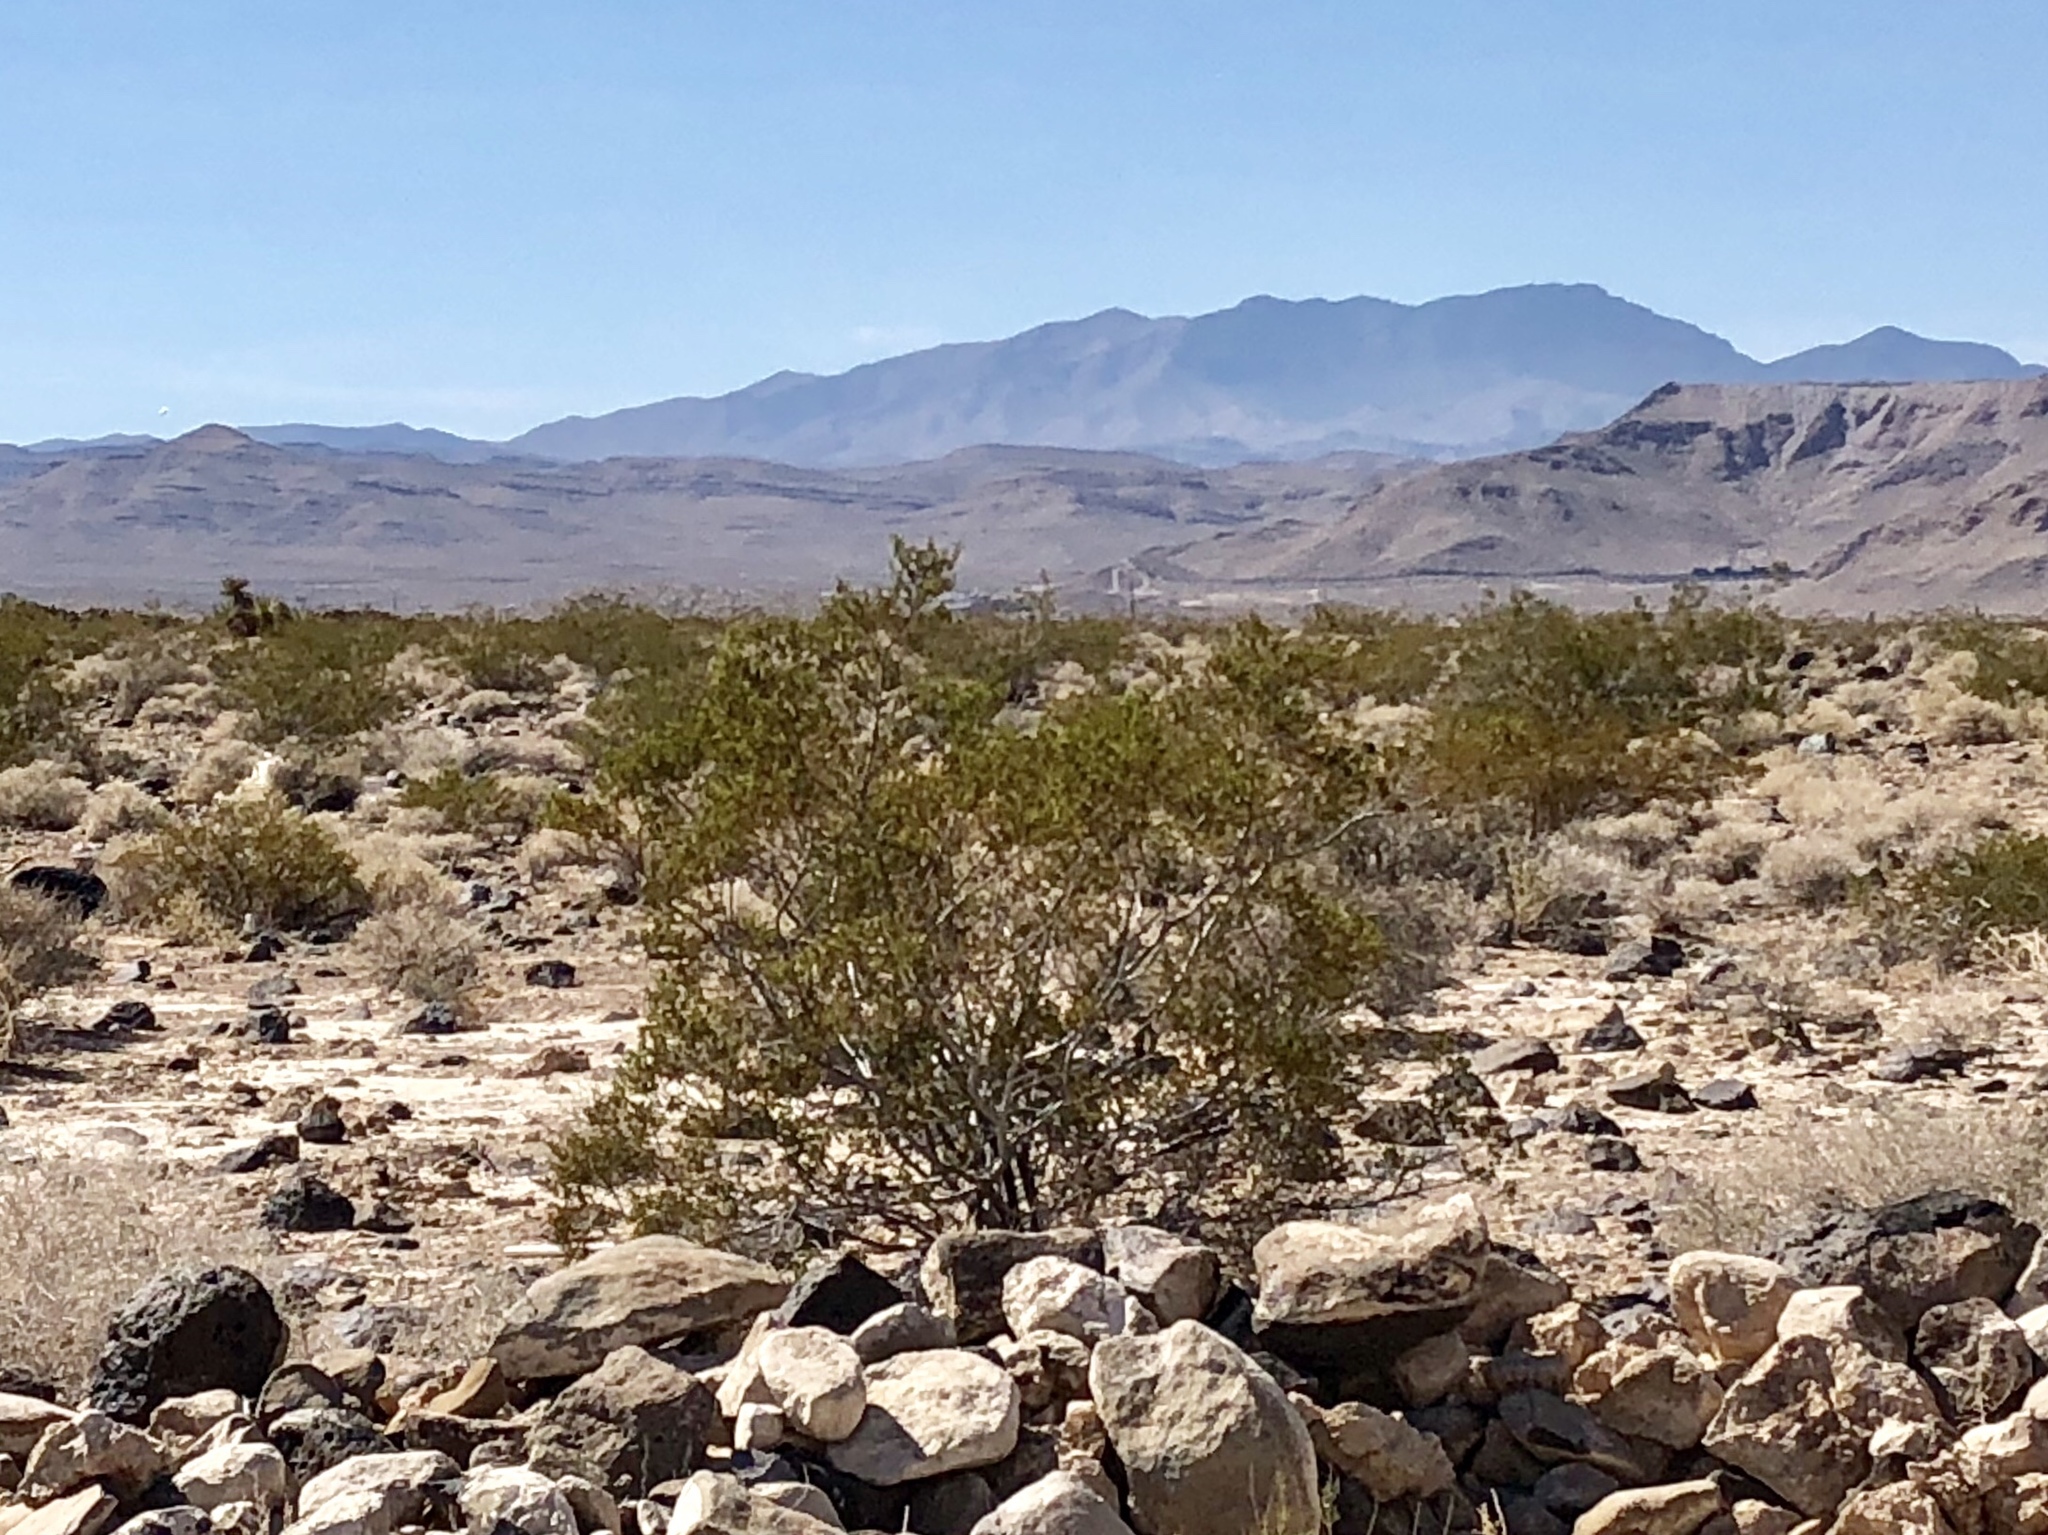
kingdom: Plantae
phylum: Tracheophyta
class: Magnoliopsida
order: Zygophyllales
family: Zygophyllaceae
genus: Larrea
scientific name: Larrea tridentata
